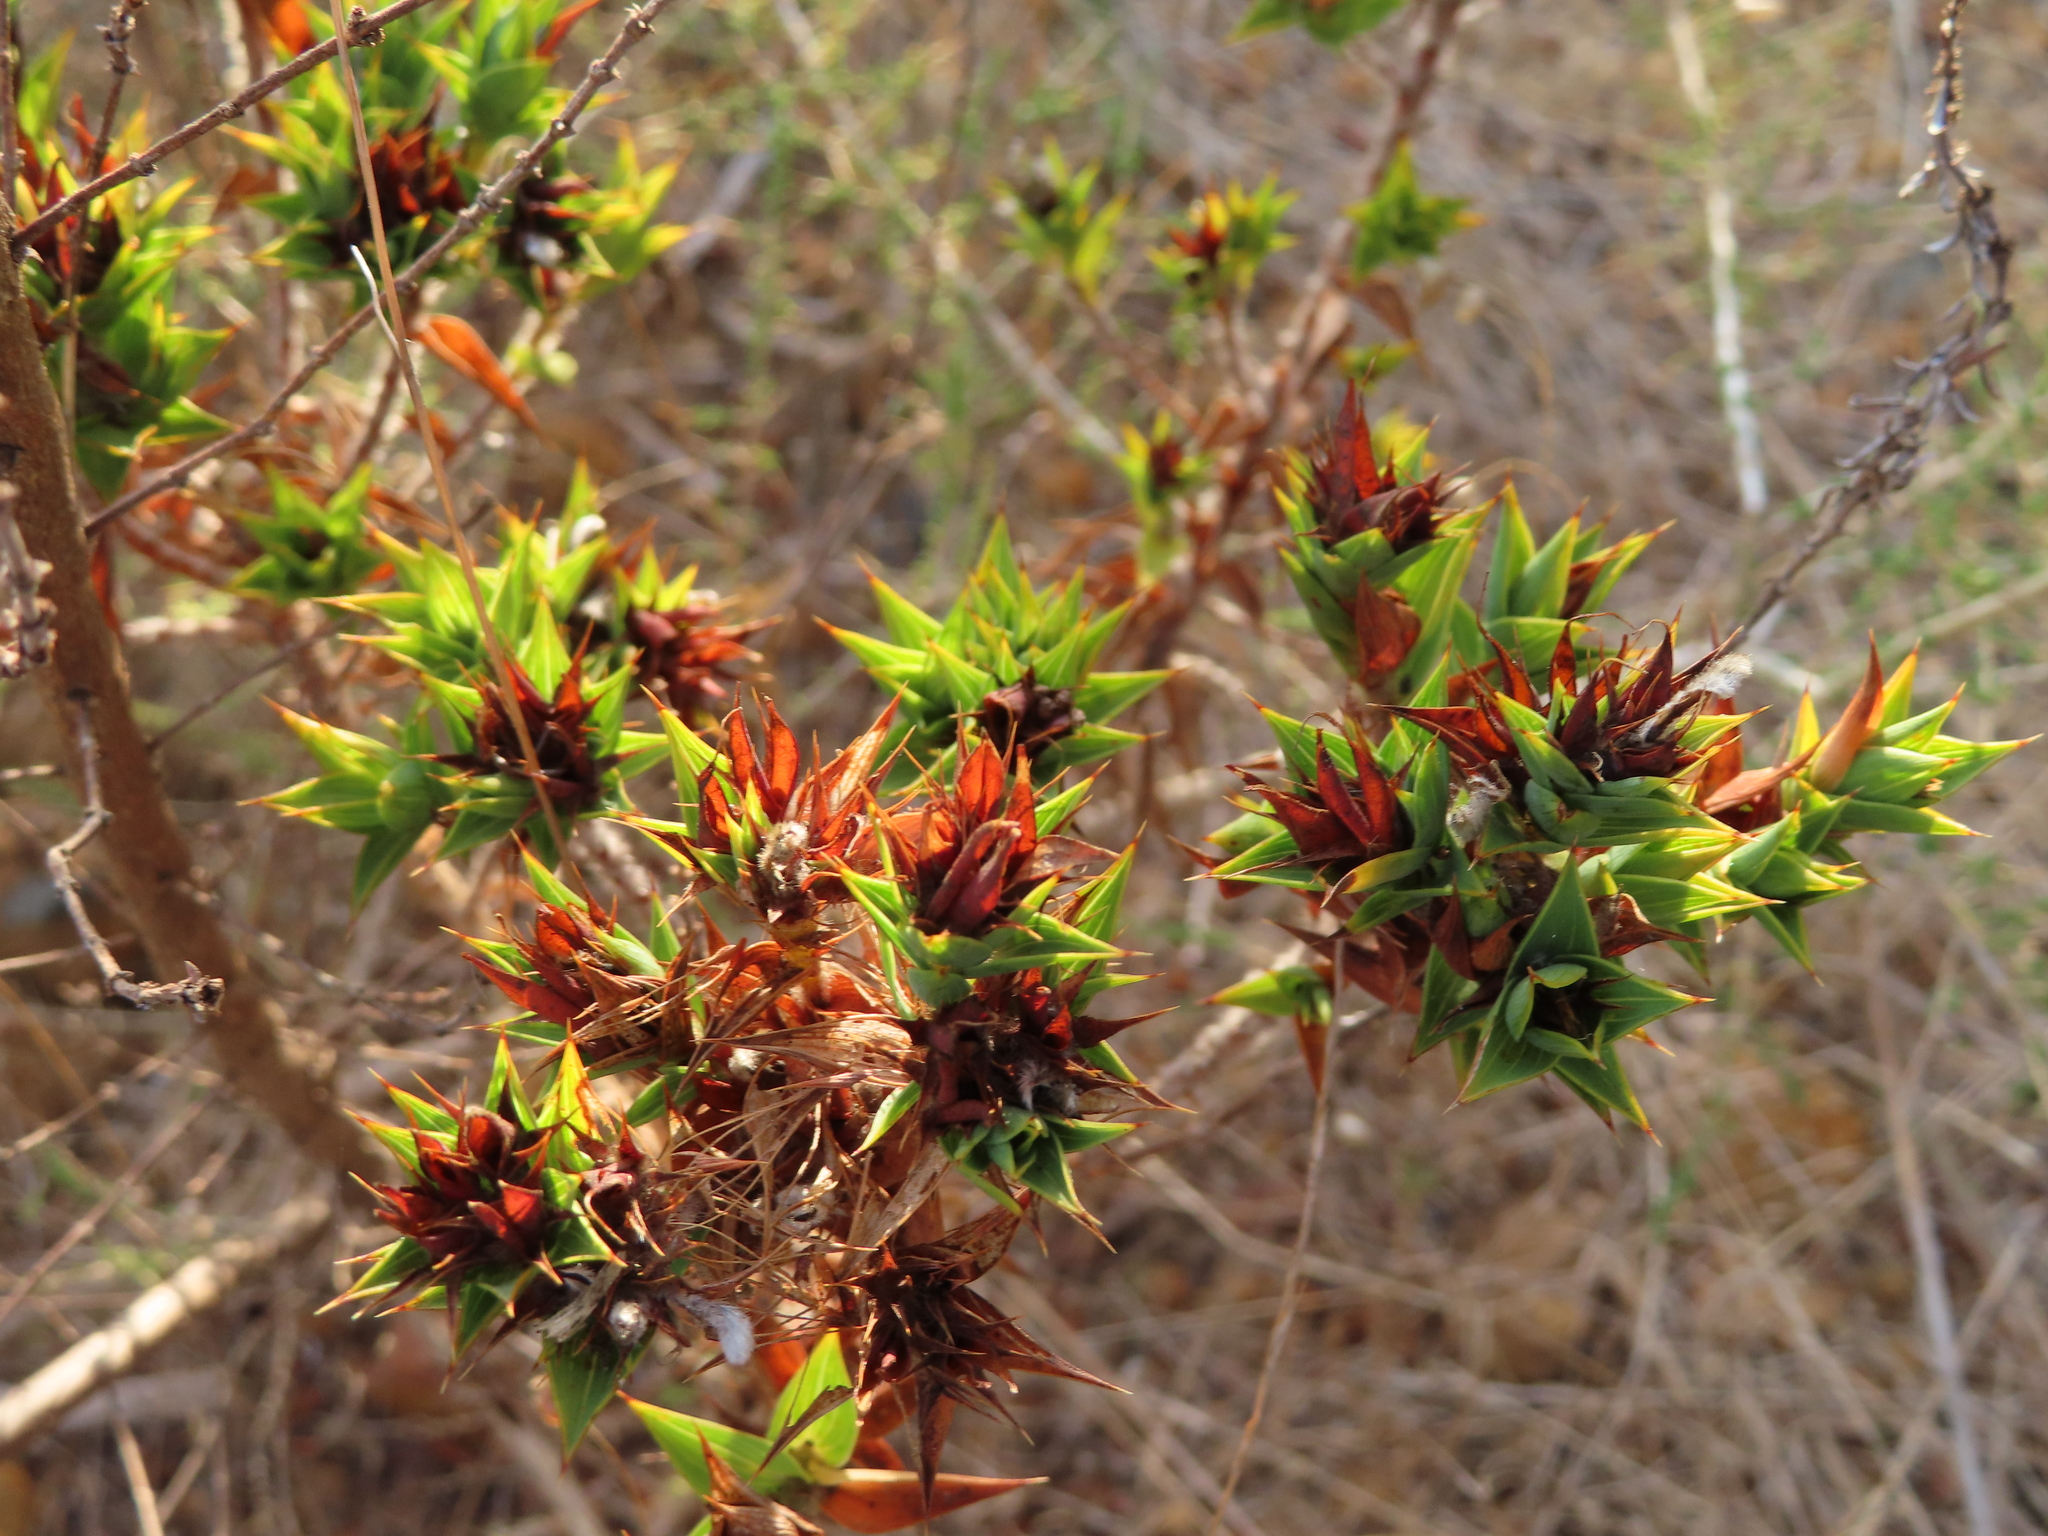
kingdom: Plantae
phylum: Tracheophyta
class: Magnoliopsida
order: Fabales
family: Fabaceae
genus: Aspalathus
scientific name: Aspalathus cordata
